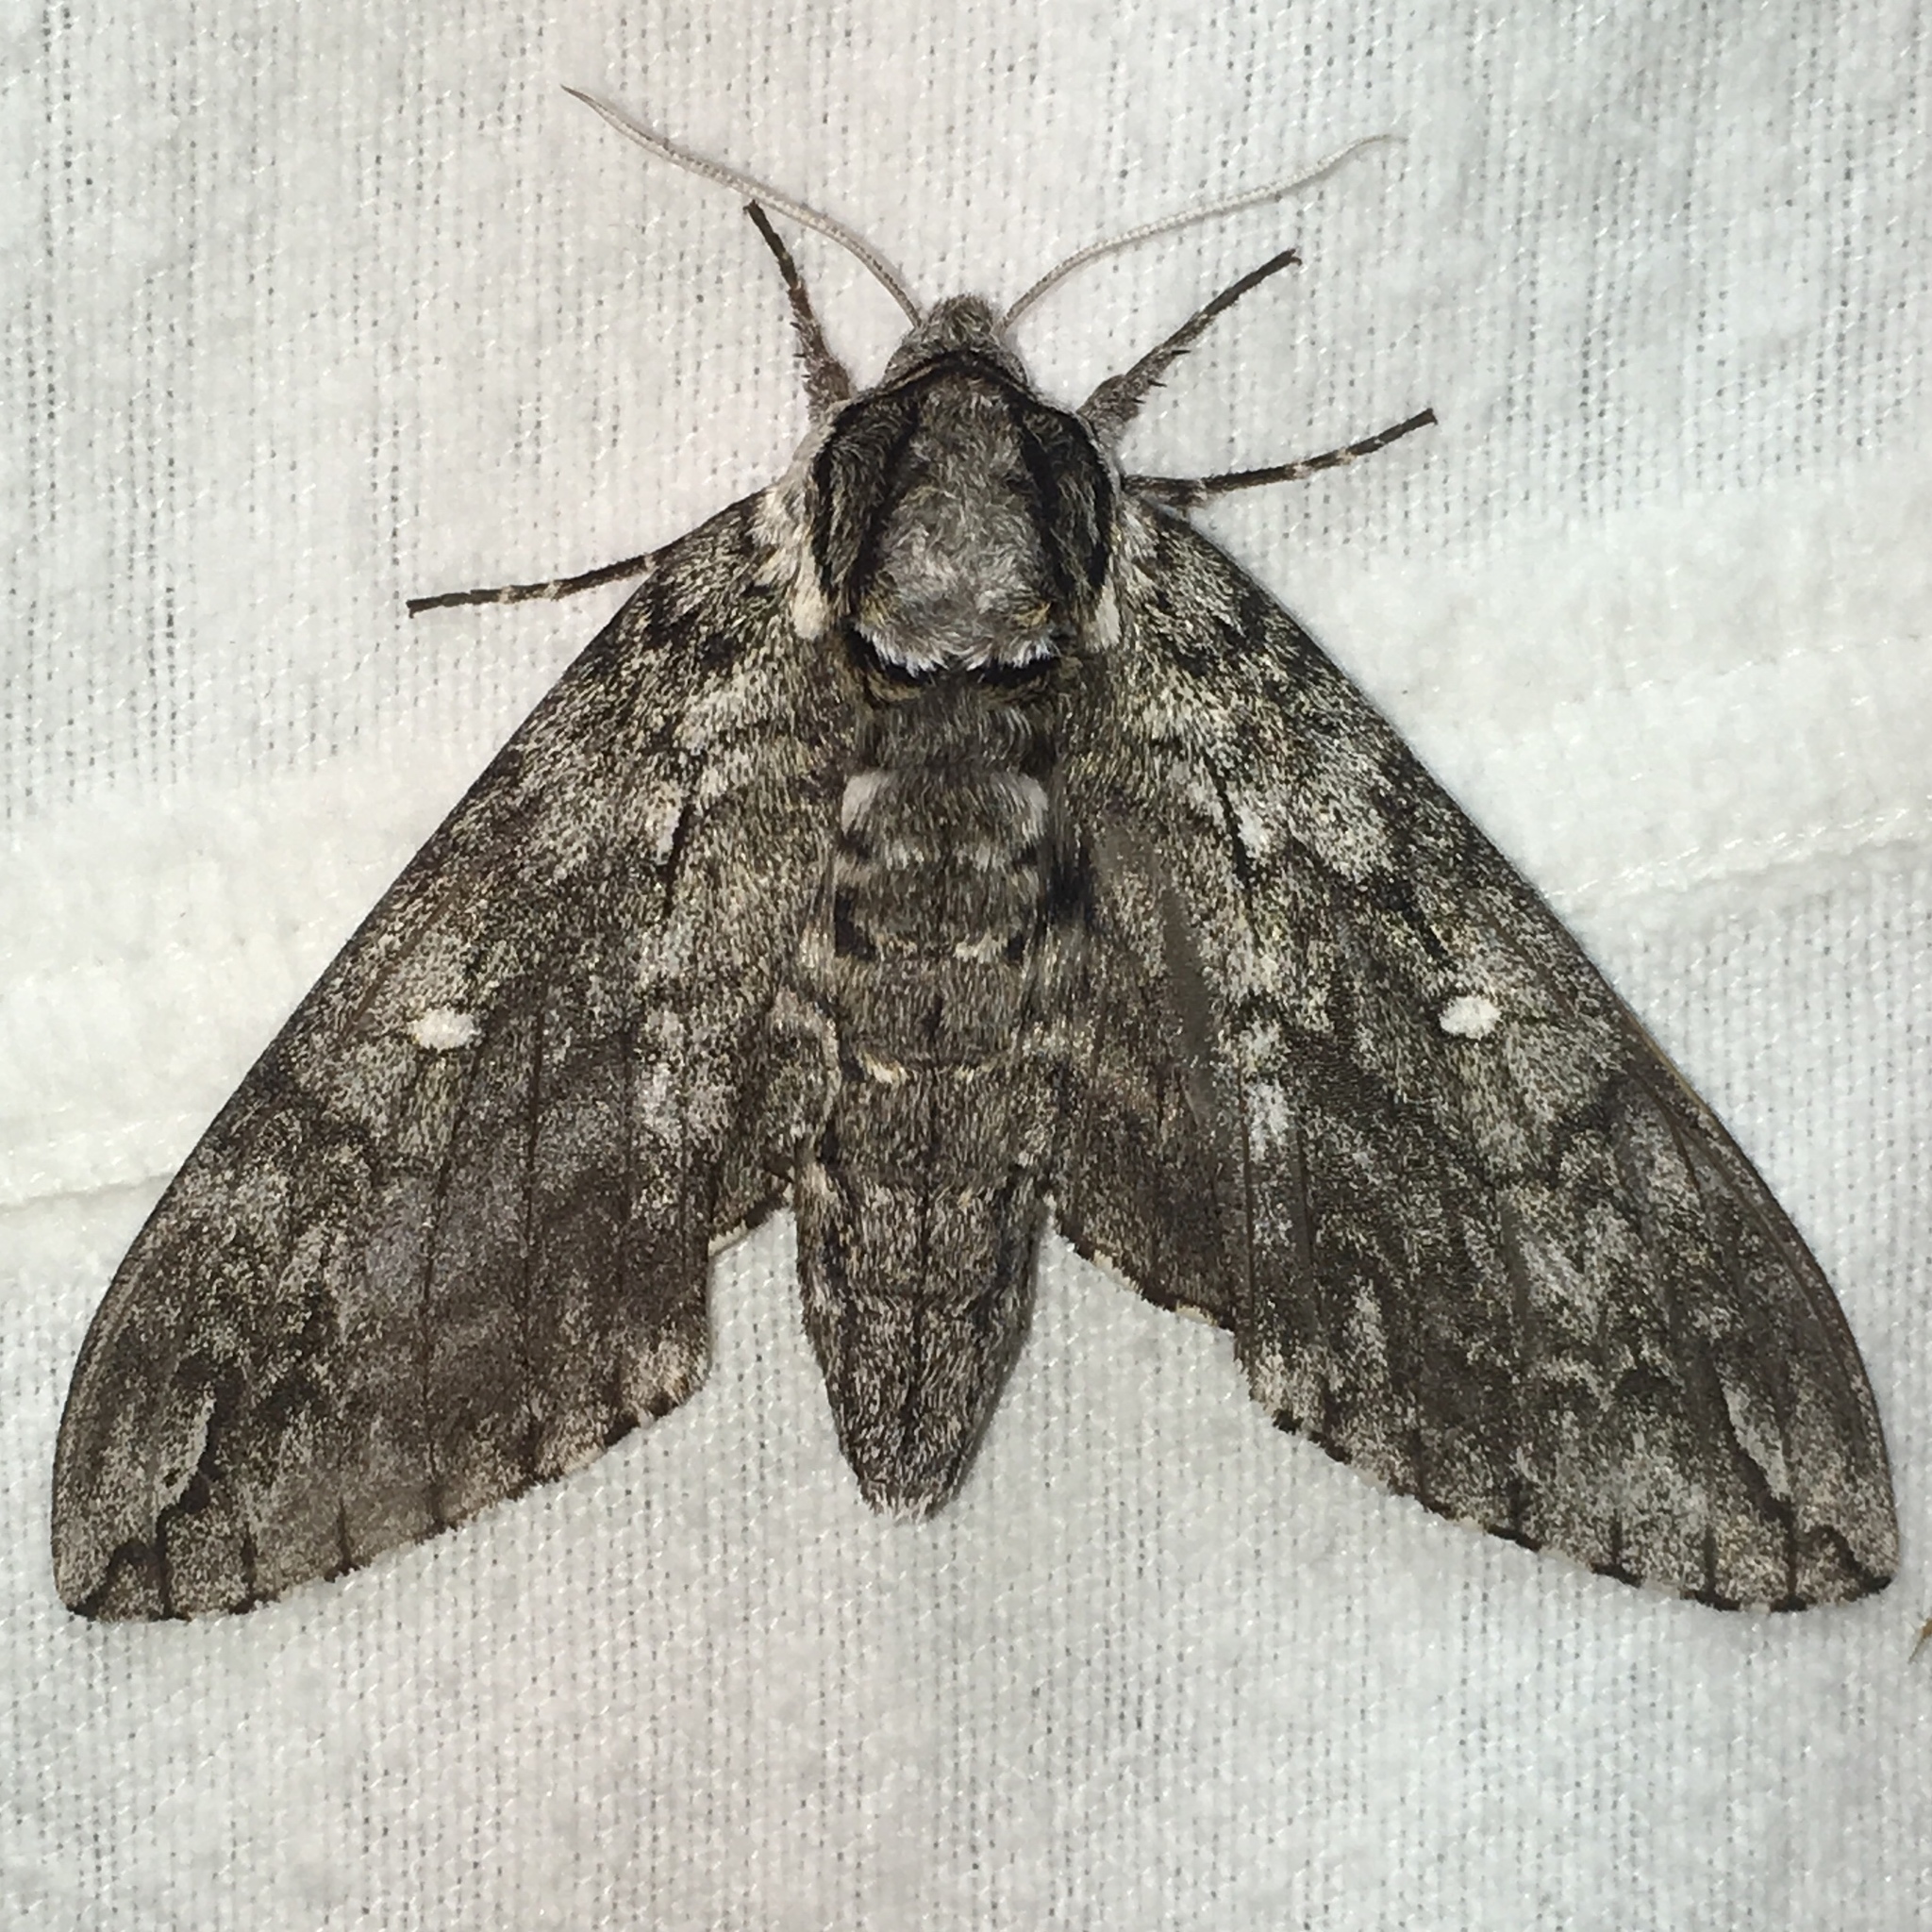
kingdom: Animalia
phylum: Arthropoda
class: Insecta
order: Lepidoptera
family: Sphingidae
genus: Ceratomia
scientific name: Ceratomia undulosa
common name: Waved sphinx
